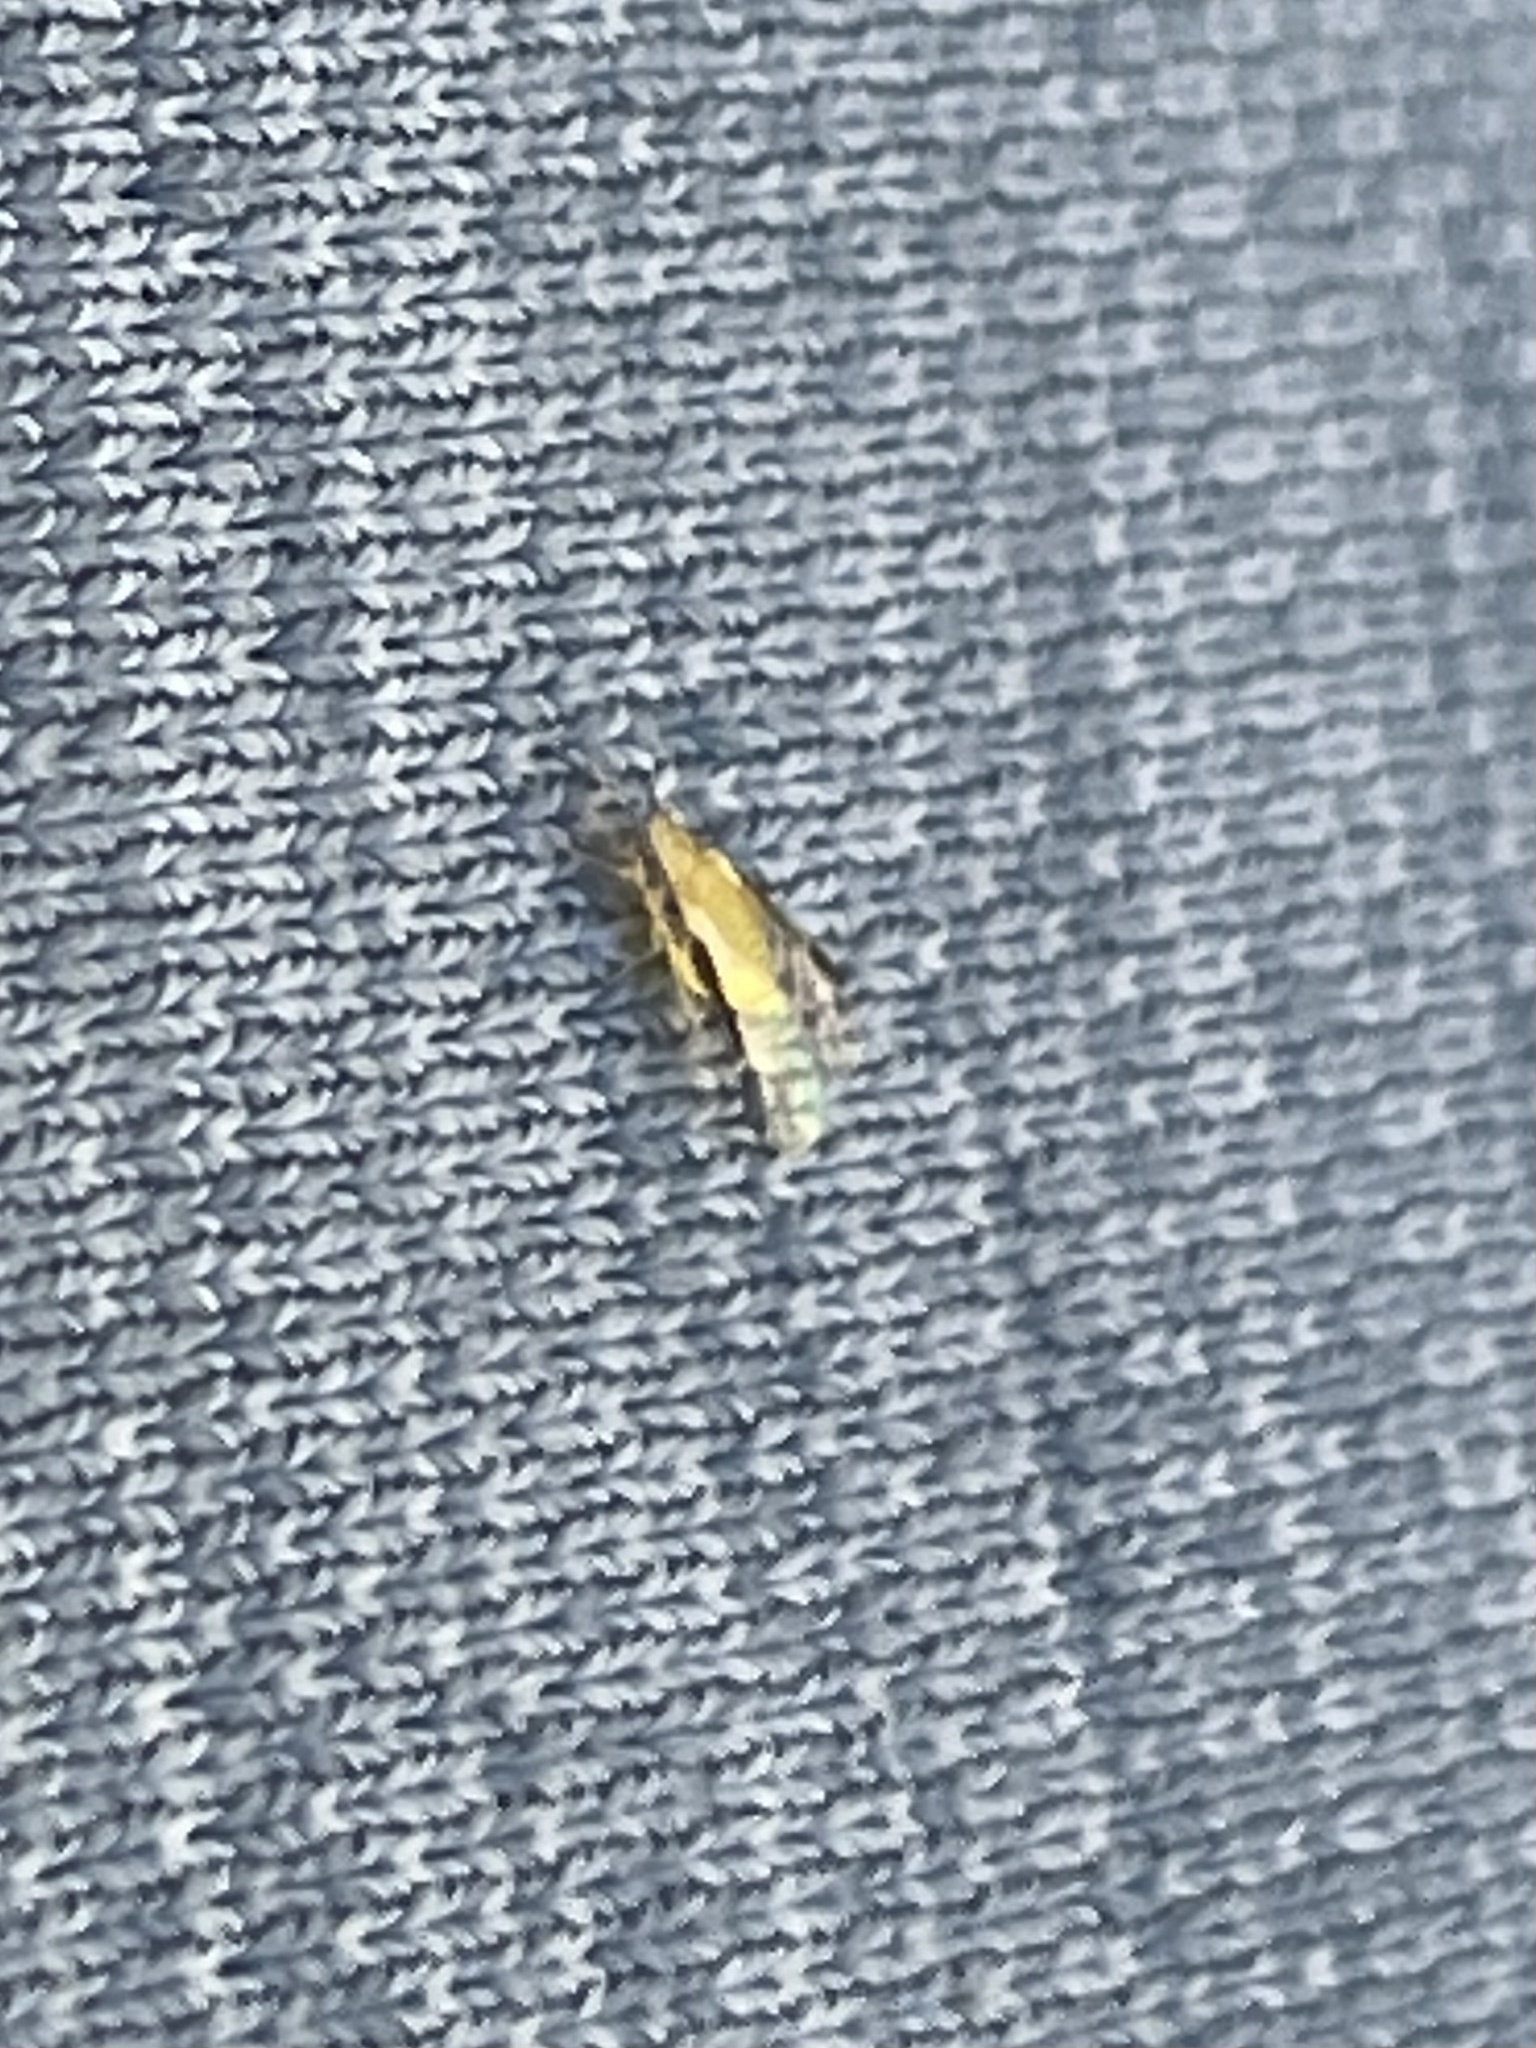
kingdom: Animalia
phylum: Arthropoda
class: Insecta
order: Hemiptera
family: Aphididae
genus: Monellia
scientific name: Monellia caryella
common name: Blackmargined aphid
